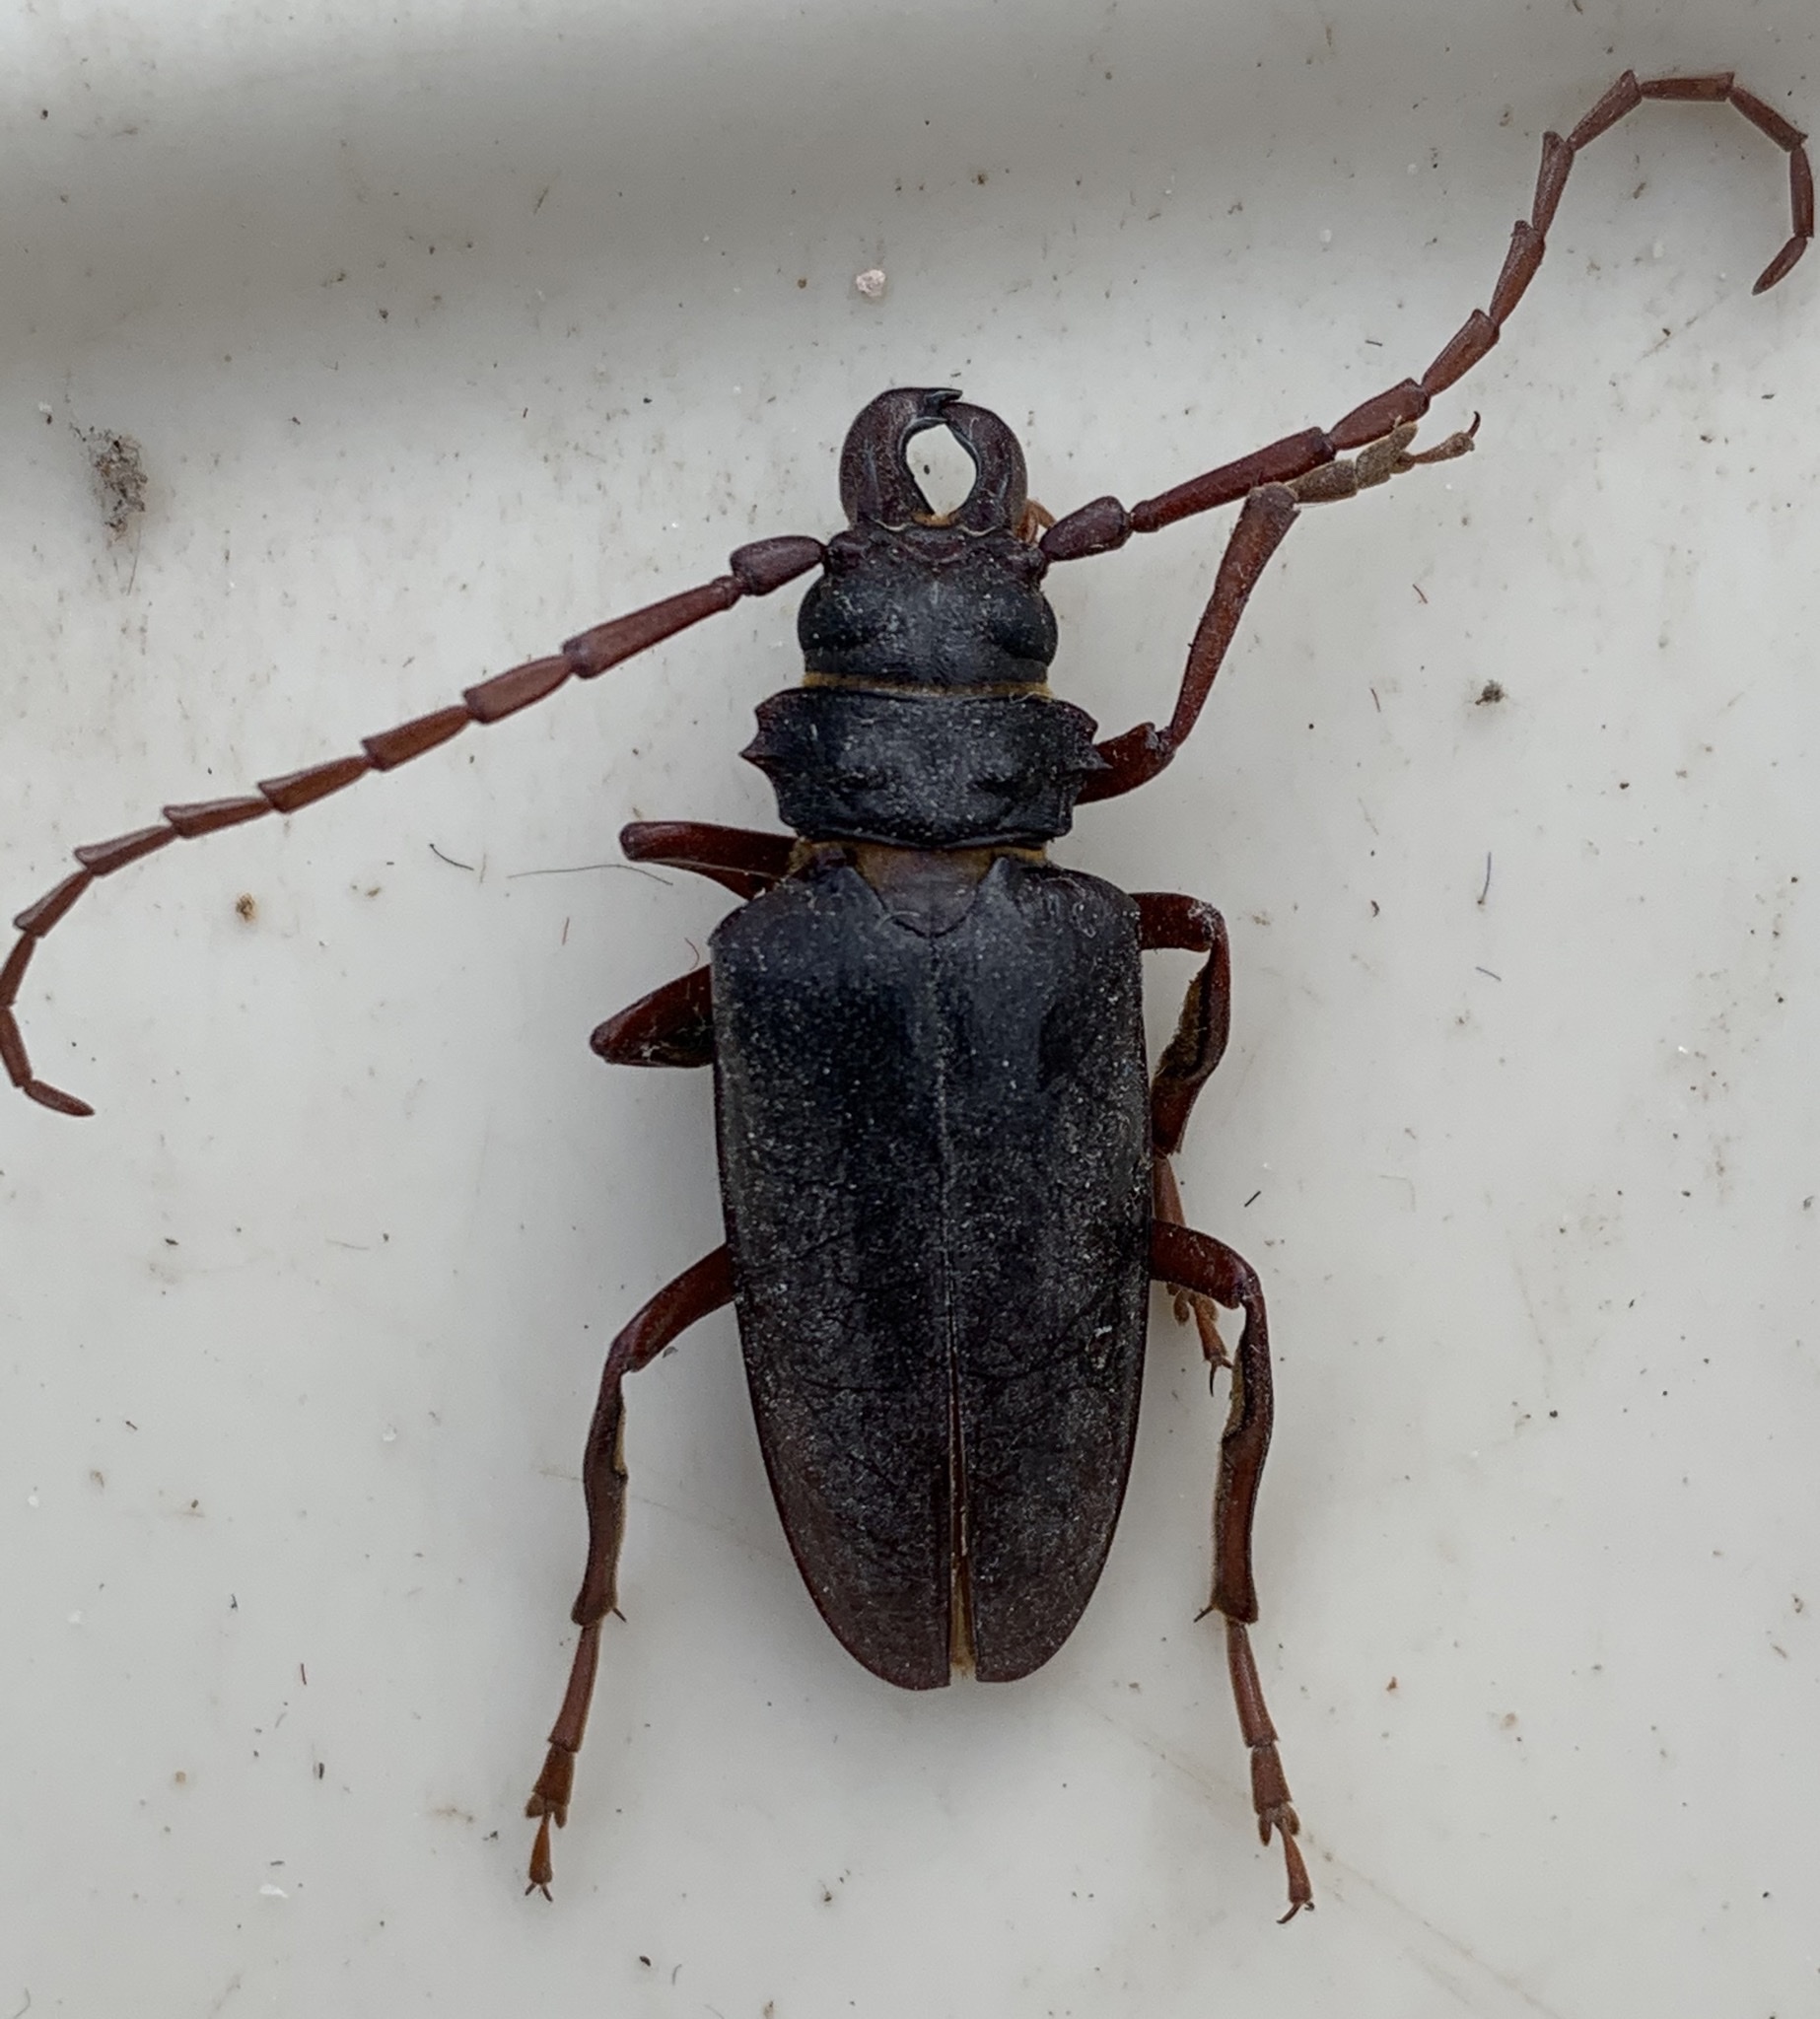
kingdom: Animalia
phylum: Arthropoda
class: Insecta
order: Coleoptera
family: Cerambycidae
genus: Cacosceles
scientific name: Cacosceles oedipus
